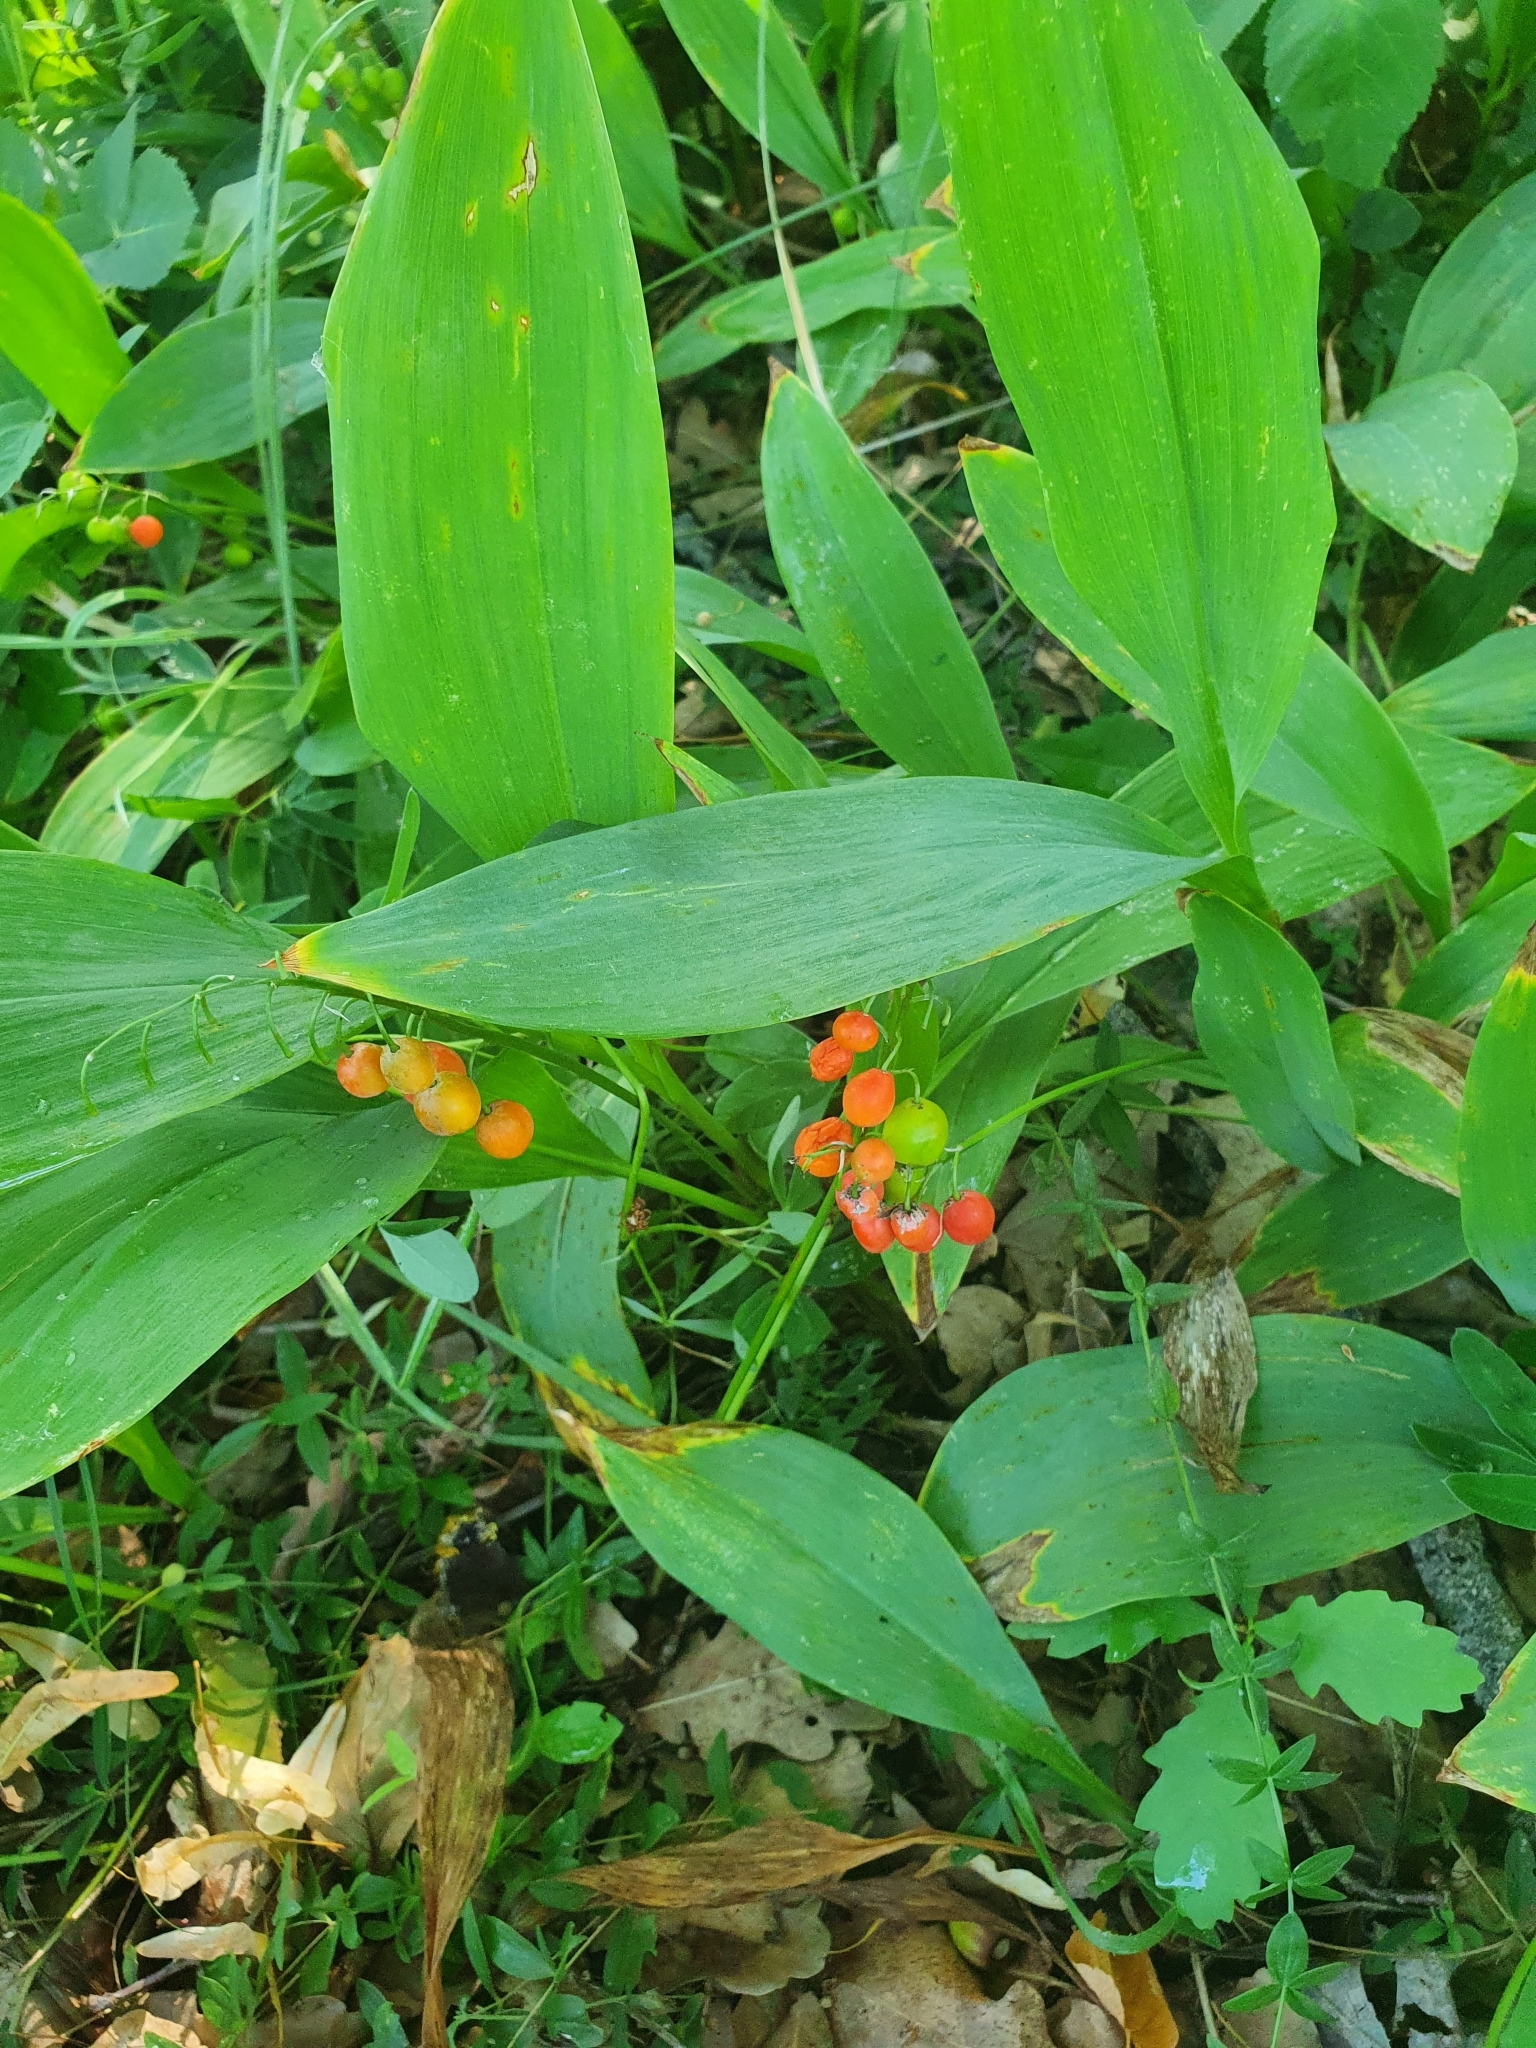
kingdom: Plantae
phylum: Tracheophyta
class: Liliopsida
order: Asparagales
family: Asparagaceae
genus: Convallaria
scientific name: Convallaria majalis
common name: Lily-of-the-valley
